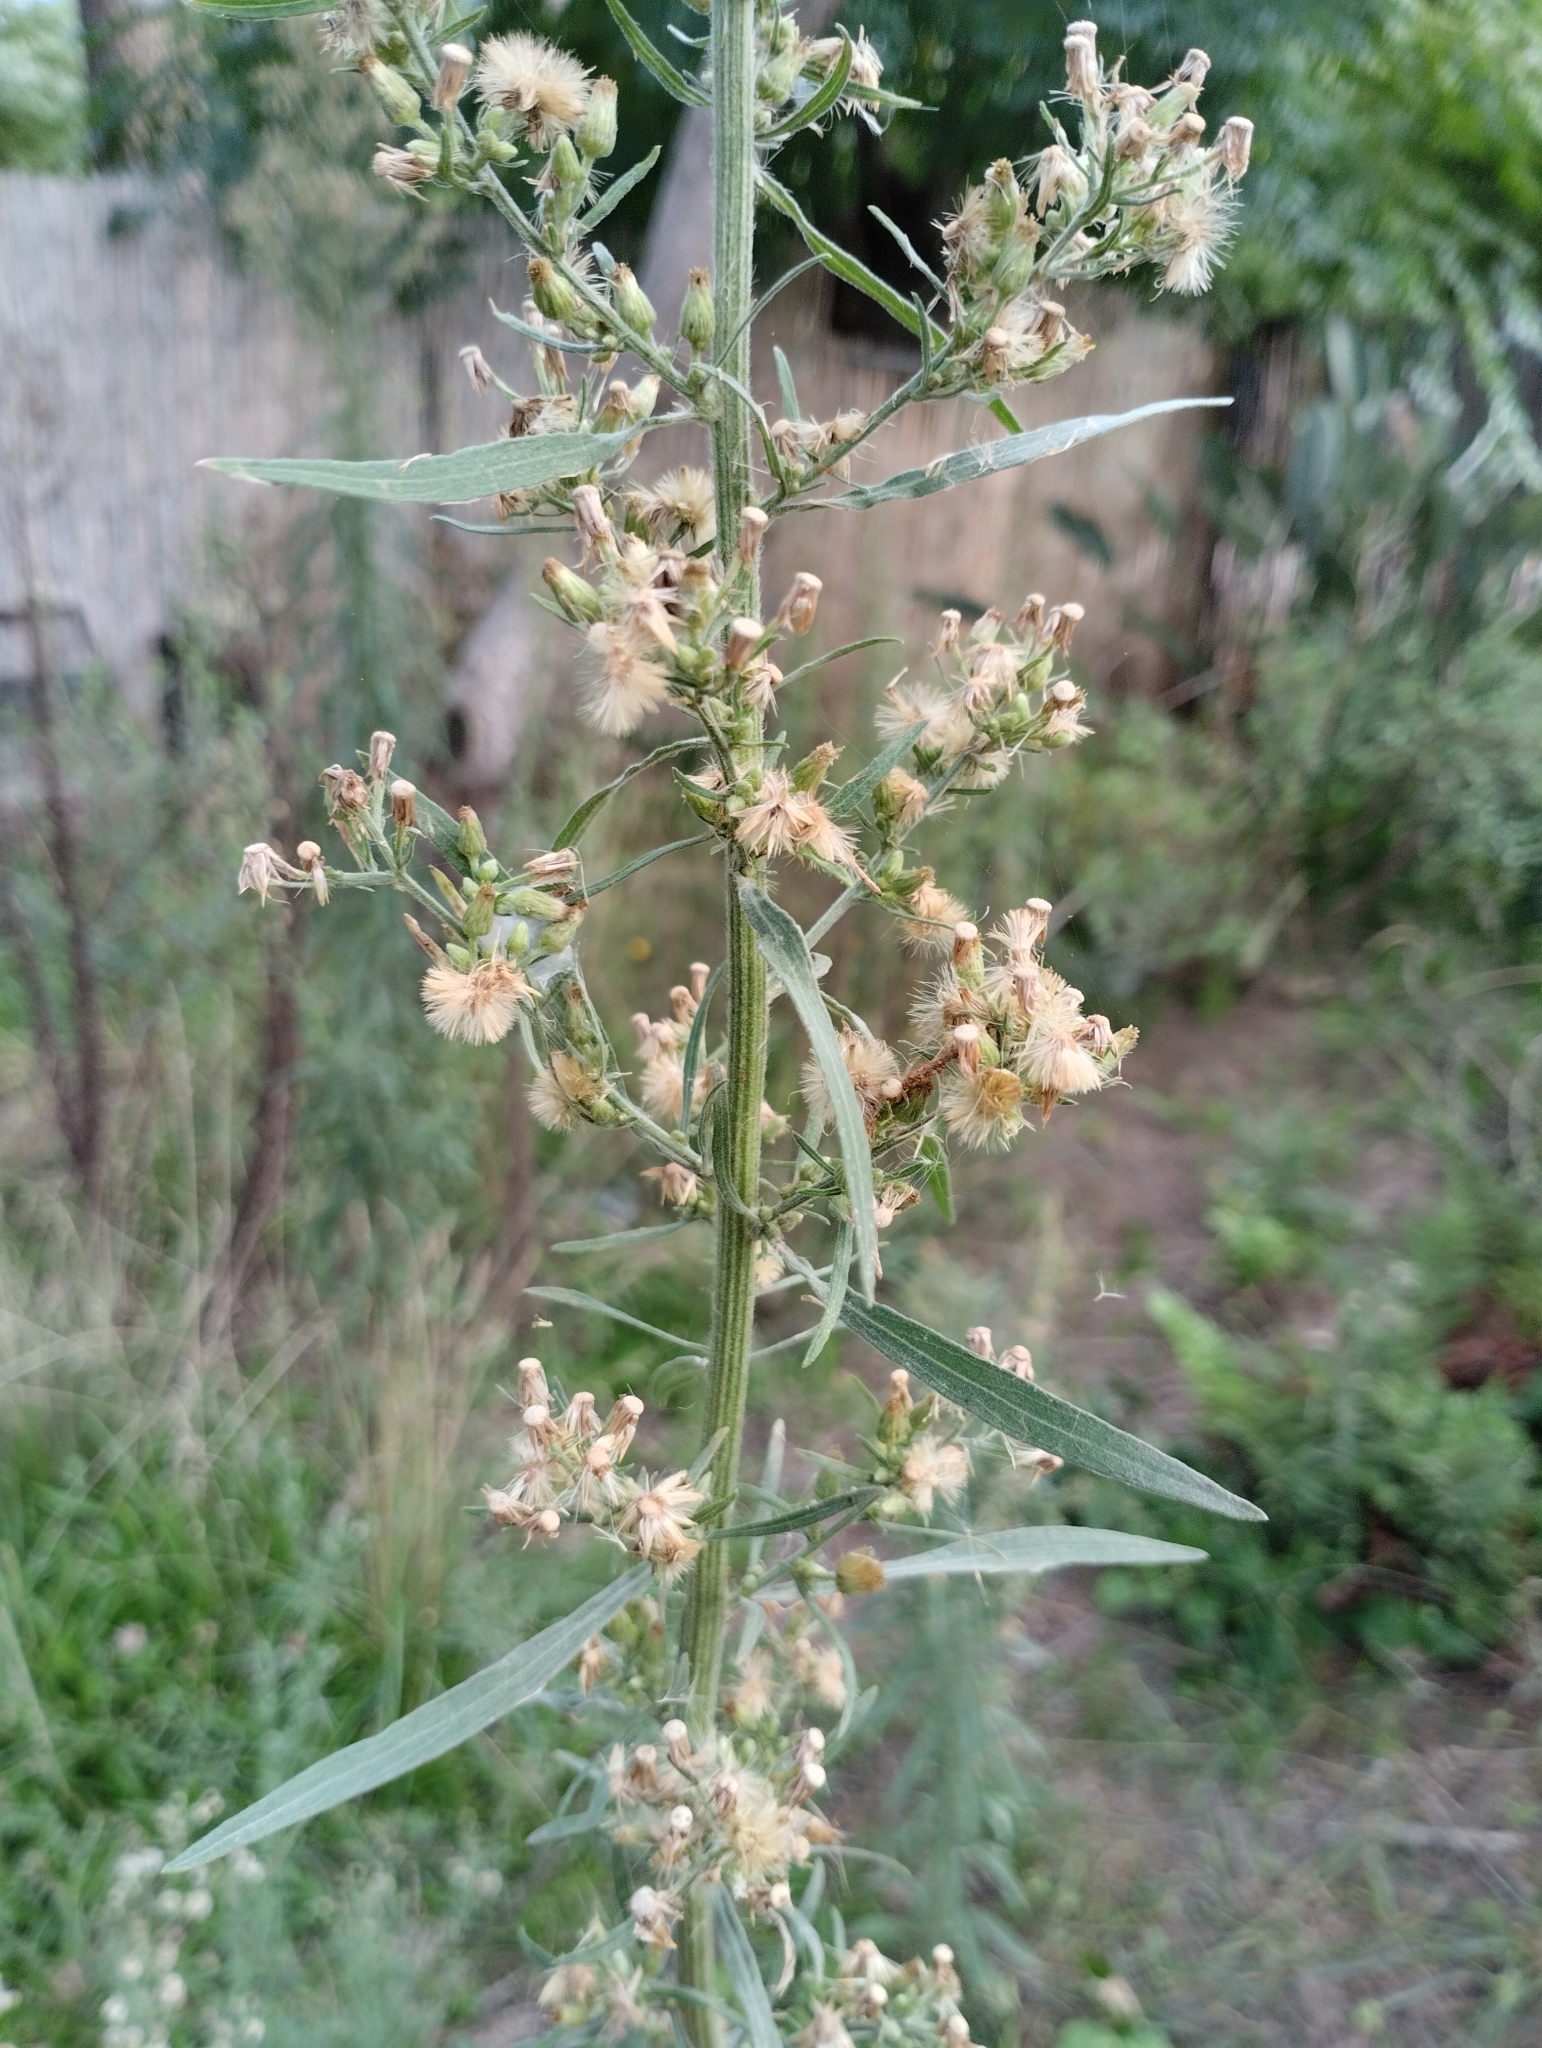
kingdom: Plantae
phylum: Tracheophyta
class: Magnoliopsida
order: Asterales
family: Asteraceae
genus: Erigeron
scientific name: Erigeron bonariensis
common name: Argentine fleabane
